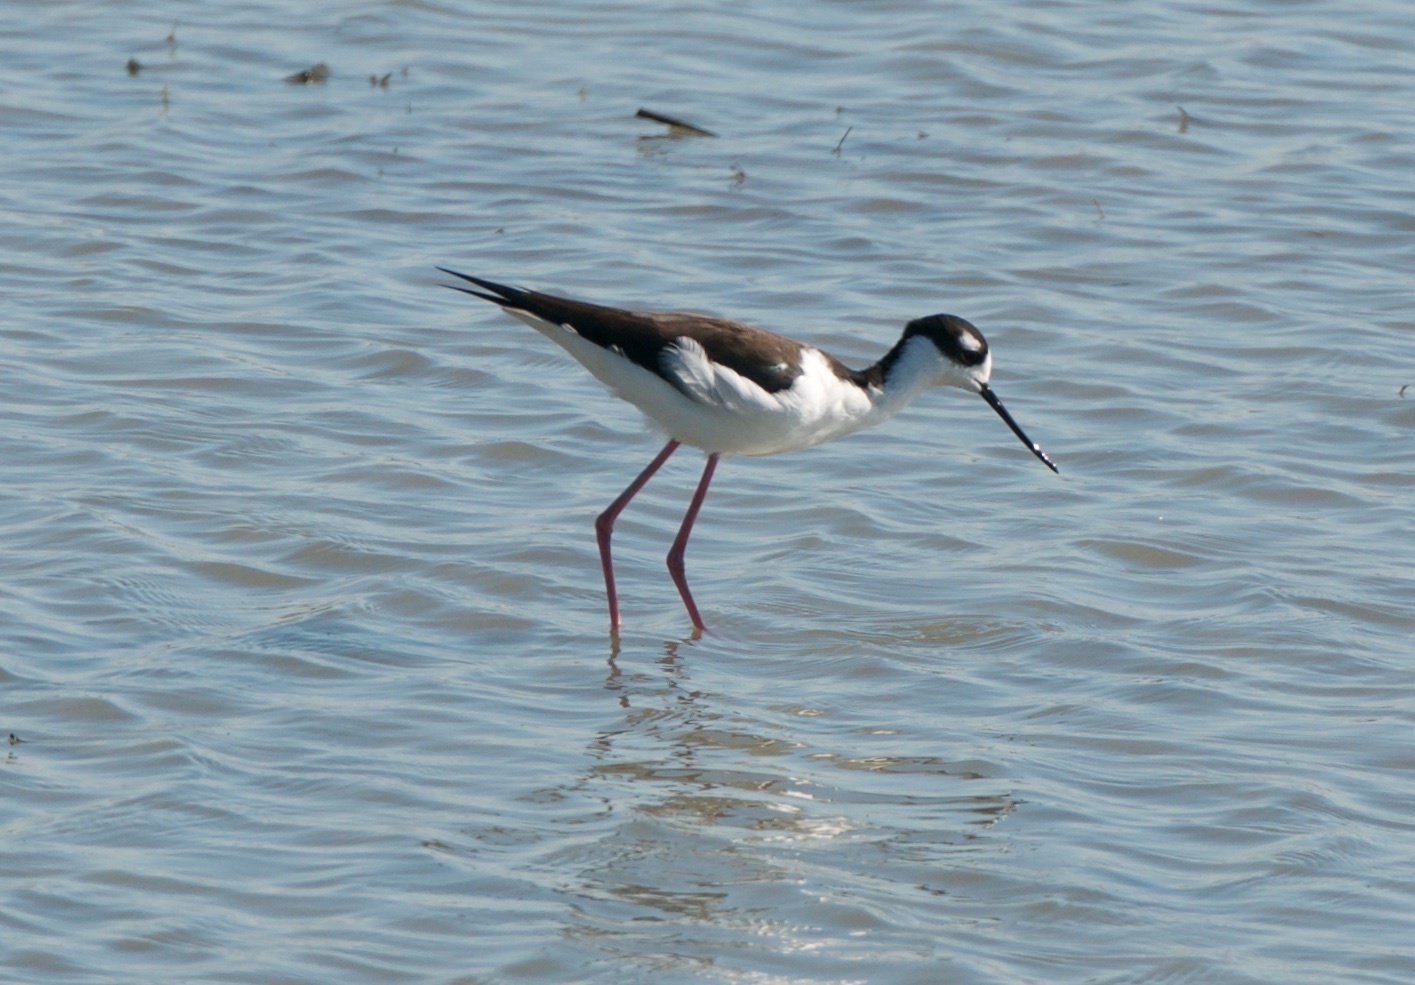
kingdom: Animalia
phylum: Chordata
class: Aves
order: Charadriiformes
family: Recurvirostridae
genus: Himantopus
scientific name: Himantopus mexicanus
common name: Black-necked stilt
